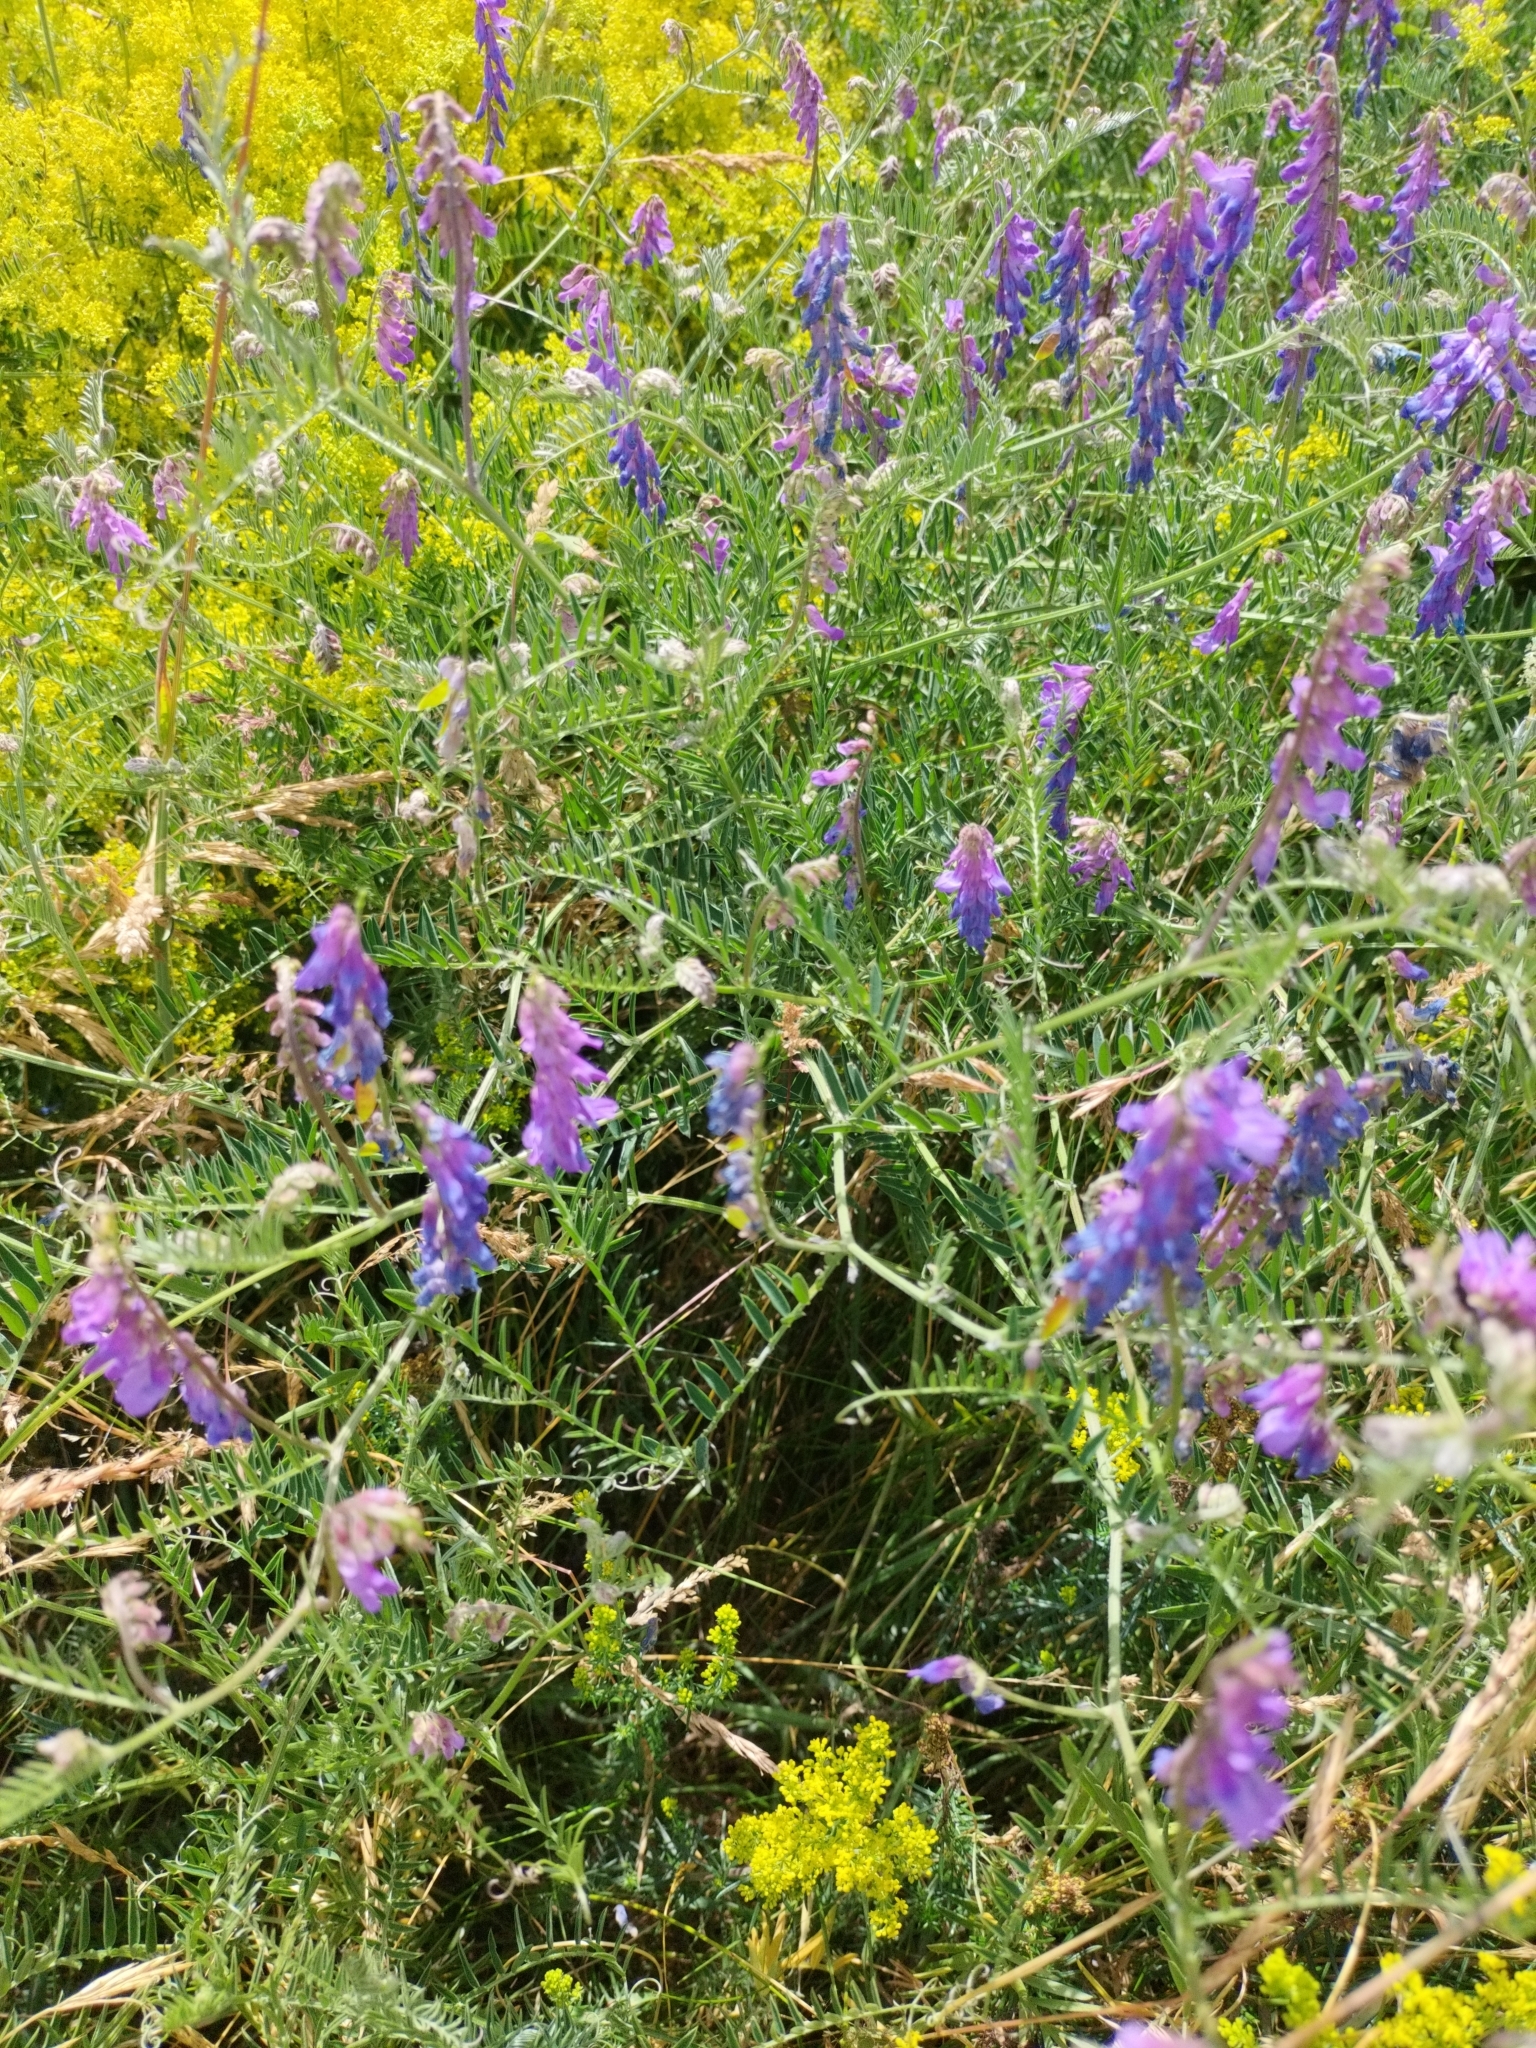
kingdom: Plantae
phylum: Tracheophyta
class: Magnoliopsida
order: Fabales
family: Fabaceae
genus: Vicia
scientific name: Vicia cracca
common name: Bird vetch
